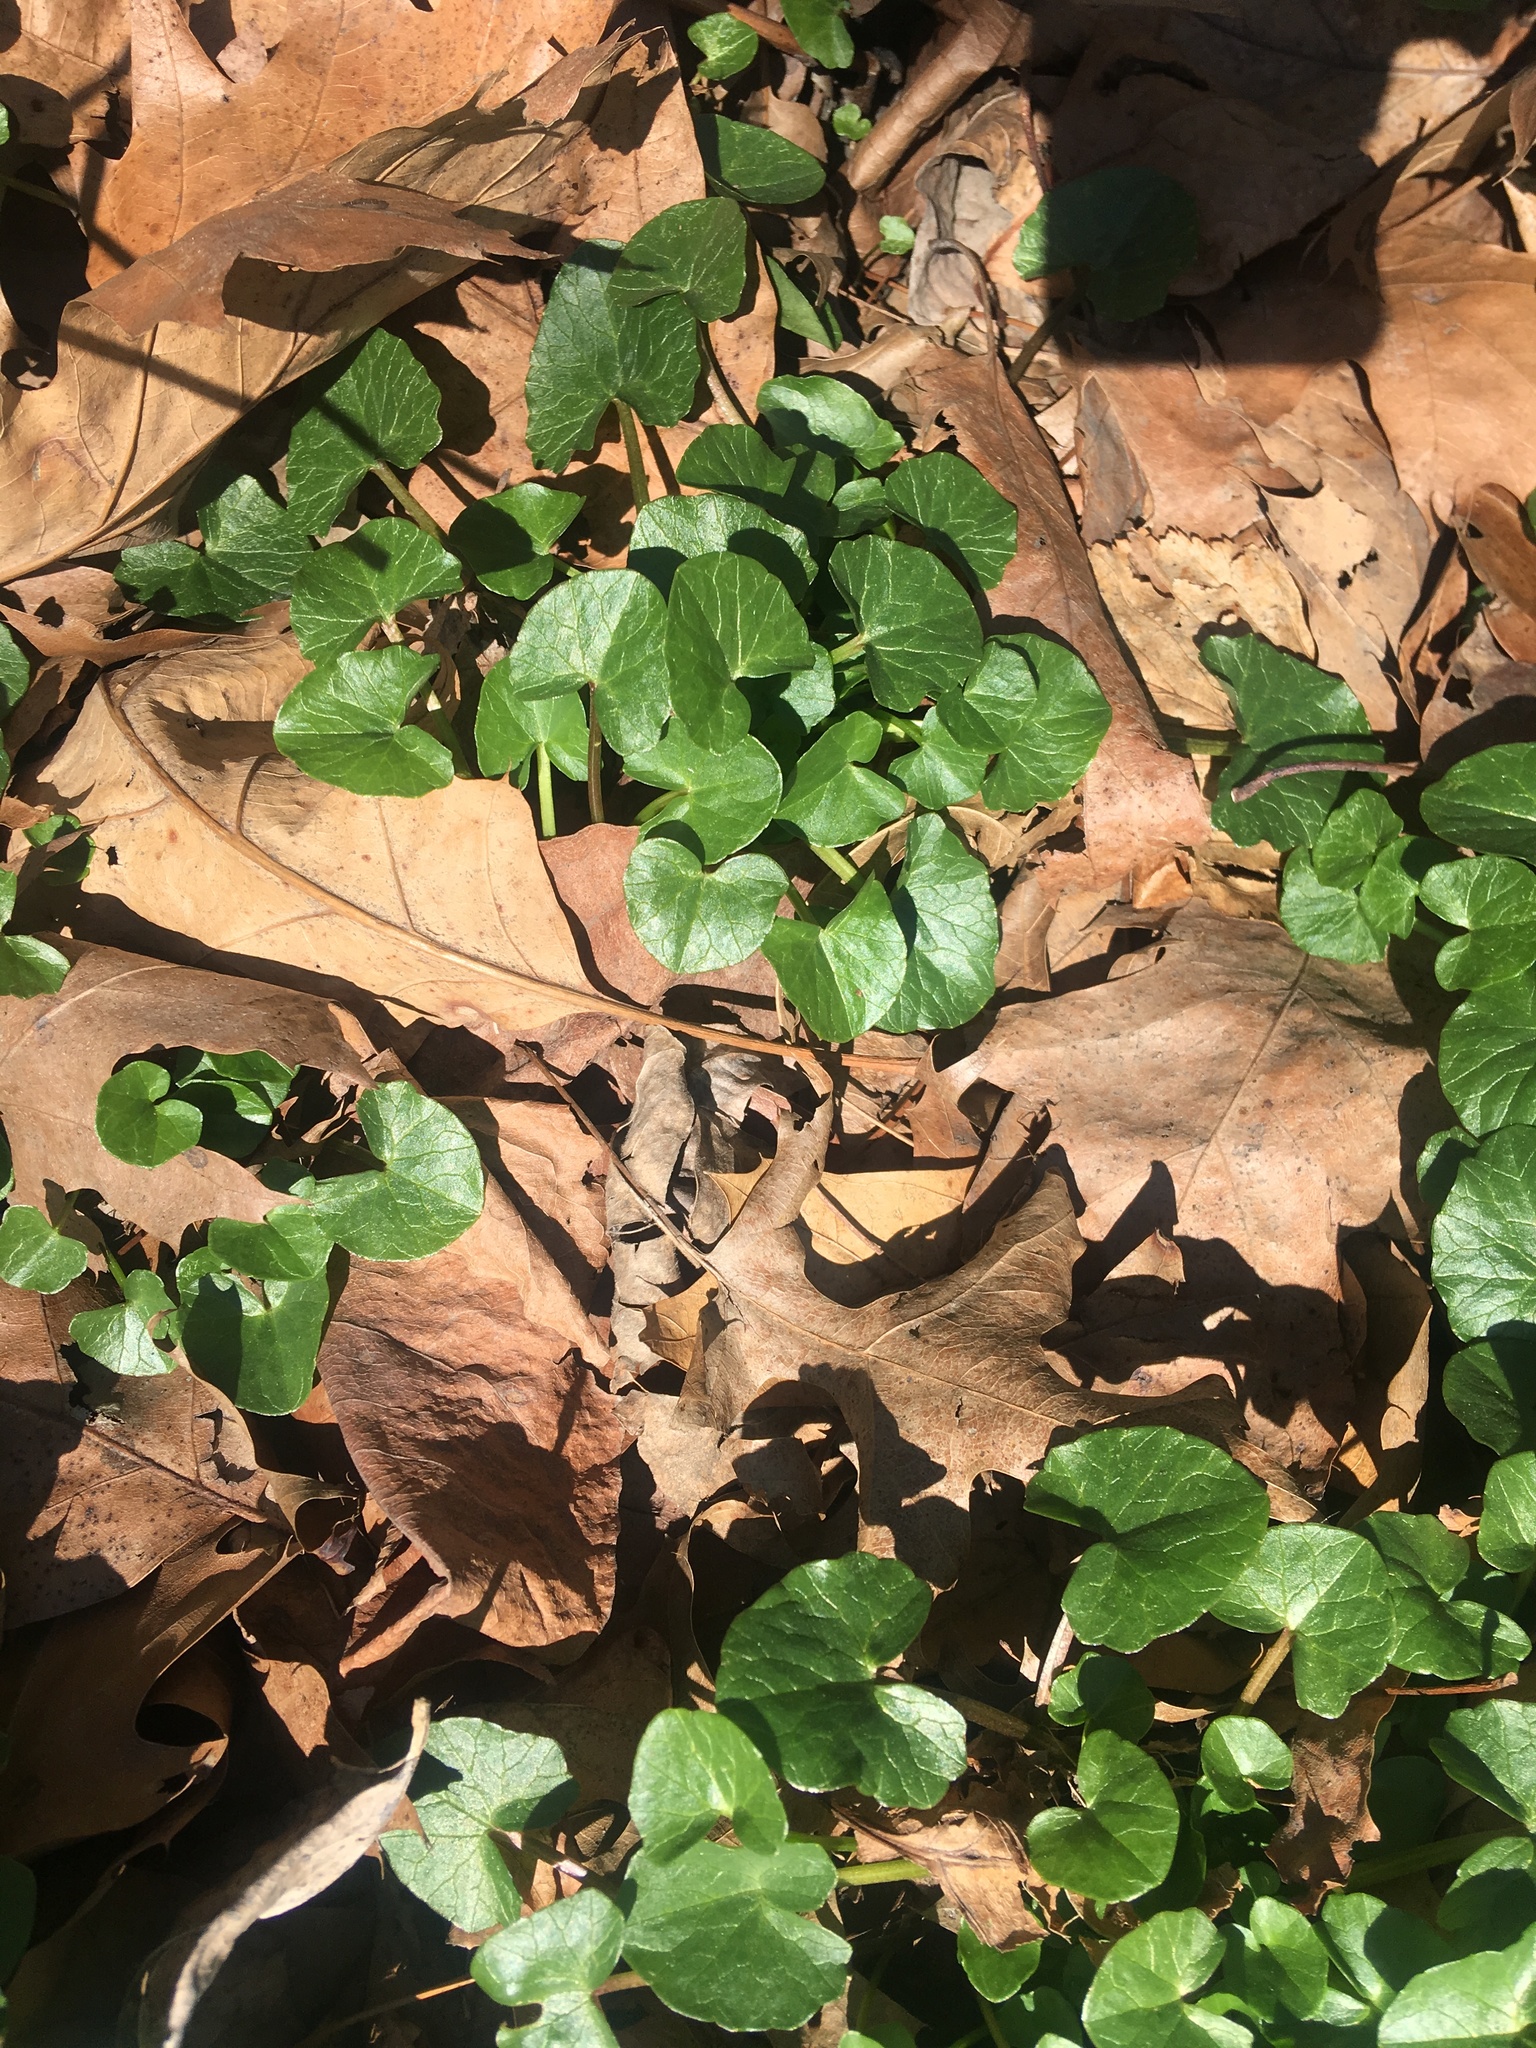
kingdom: Plantae
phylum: Tracheophyta
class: Magnoliopsida
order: Ranunculales
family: Ranunculaceae
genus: Ficaria
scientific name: Ficaria verna
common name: Lesser celandine
